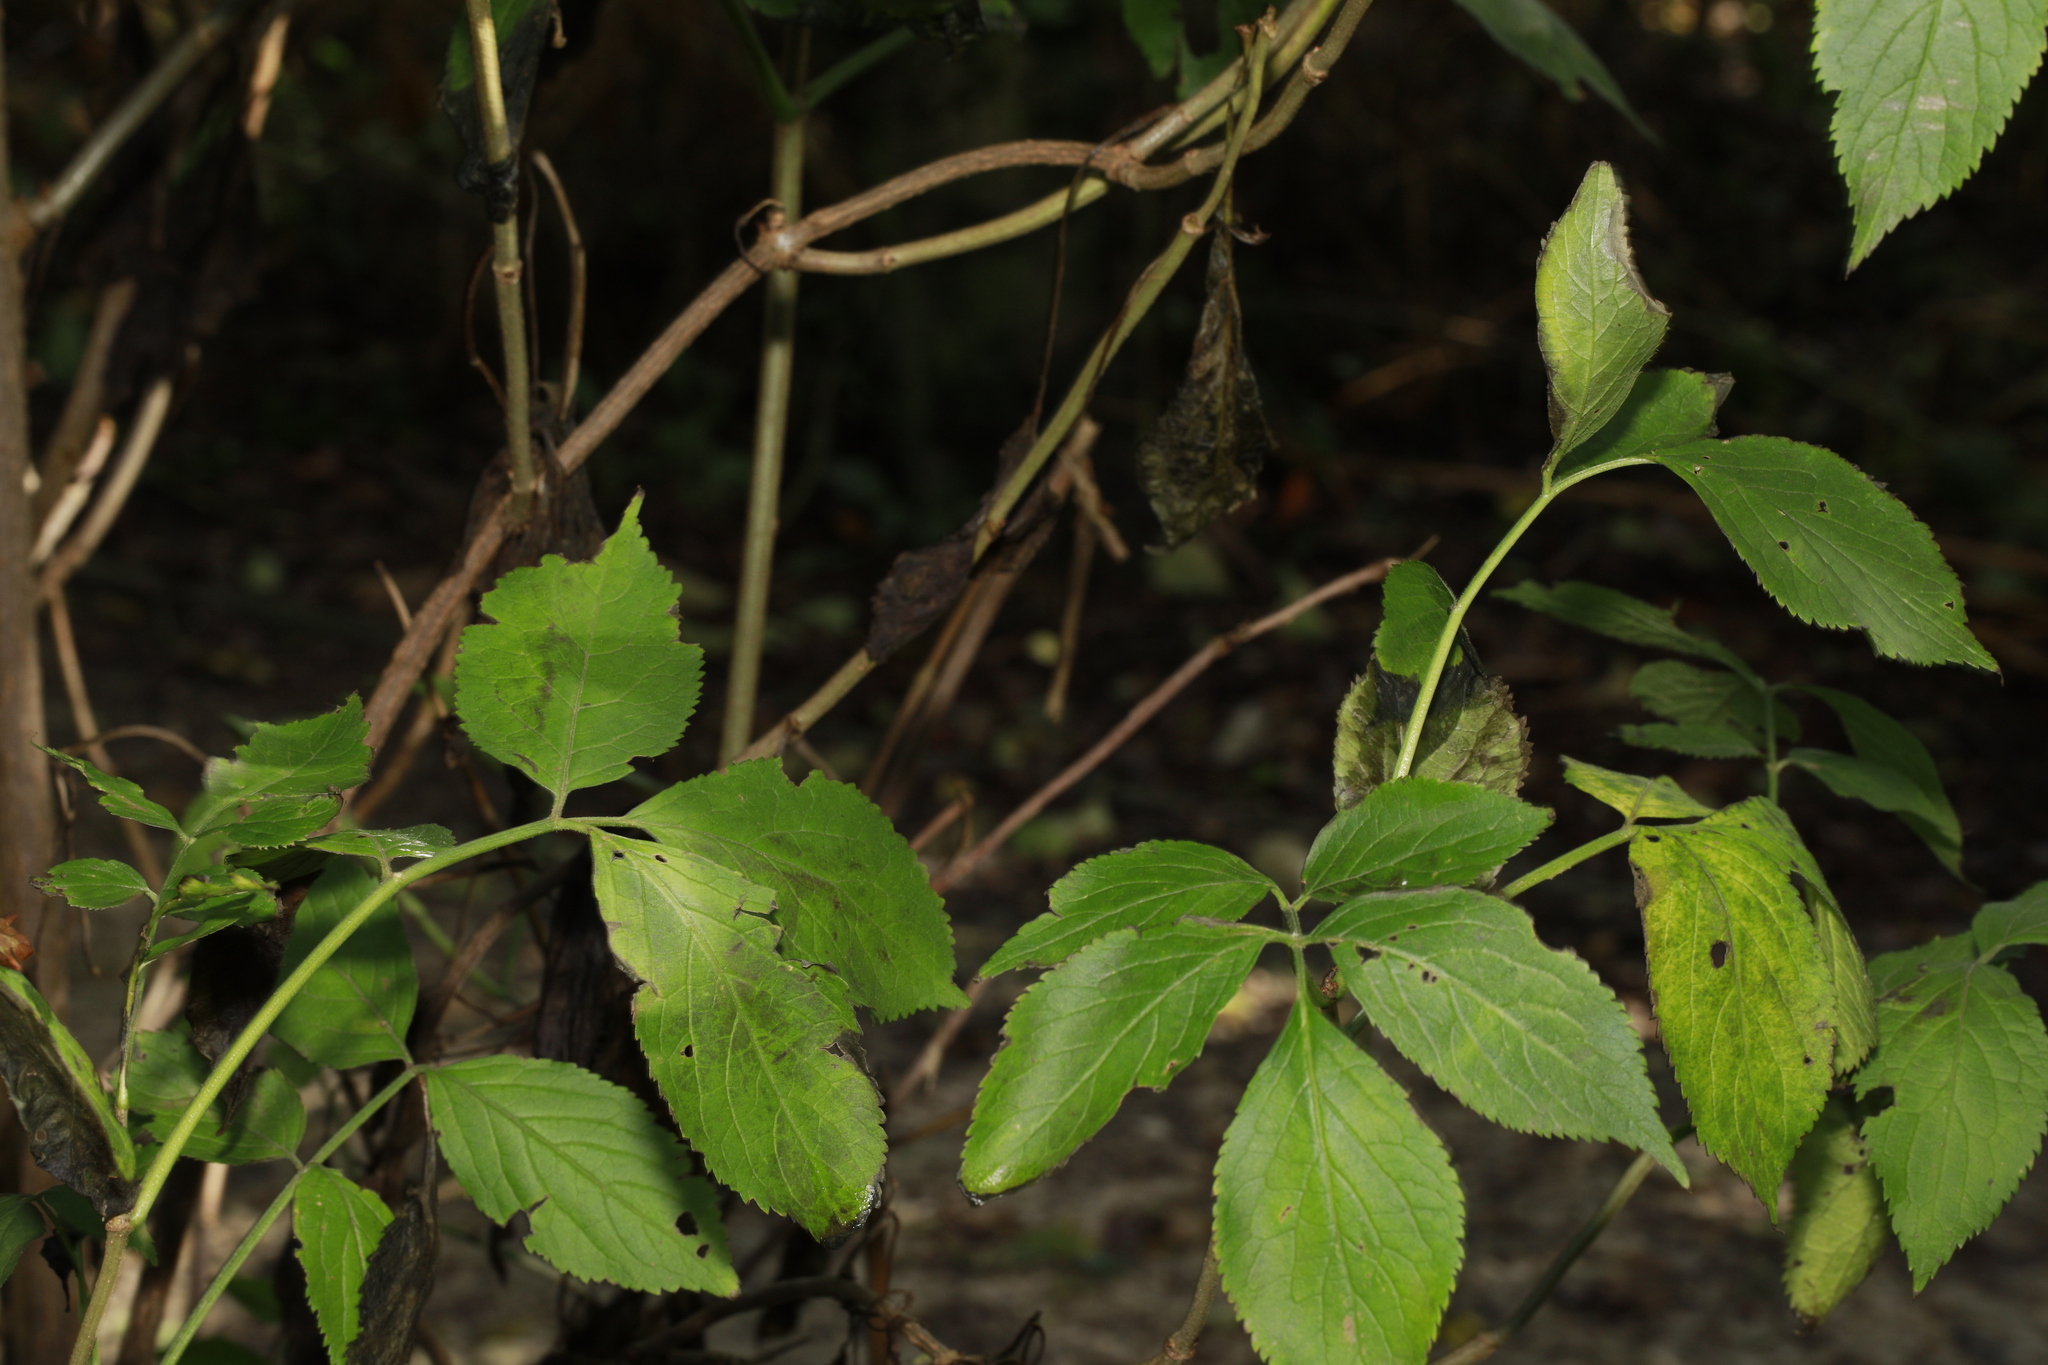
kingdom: Plantae
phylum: Tracheophyta
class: Magnoliopsida
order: Dipsacales
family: Viburnaceae
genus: Sambucus
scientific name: Sambucus nigra
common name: Elder
